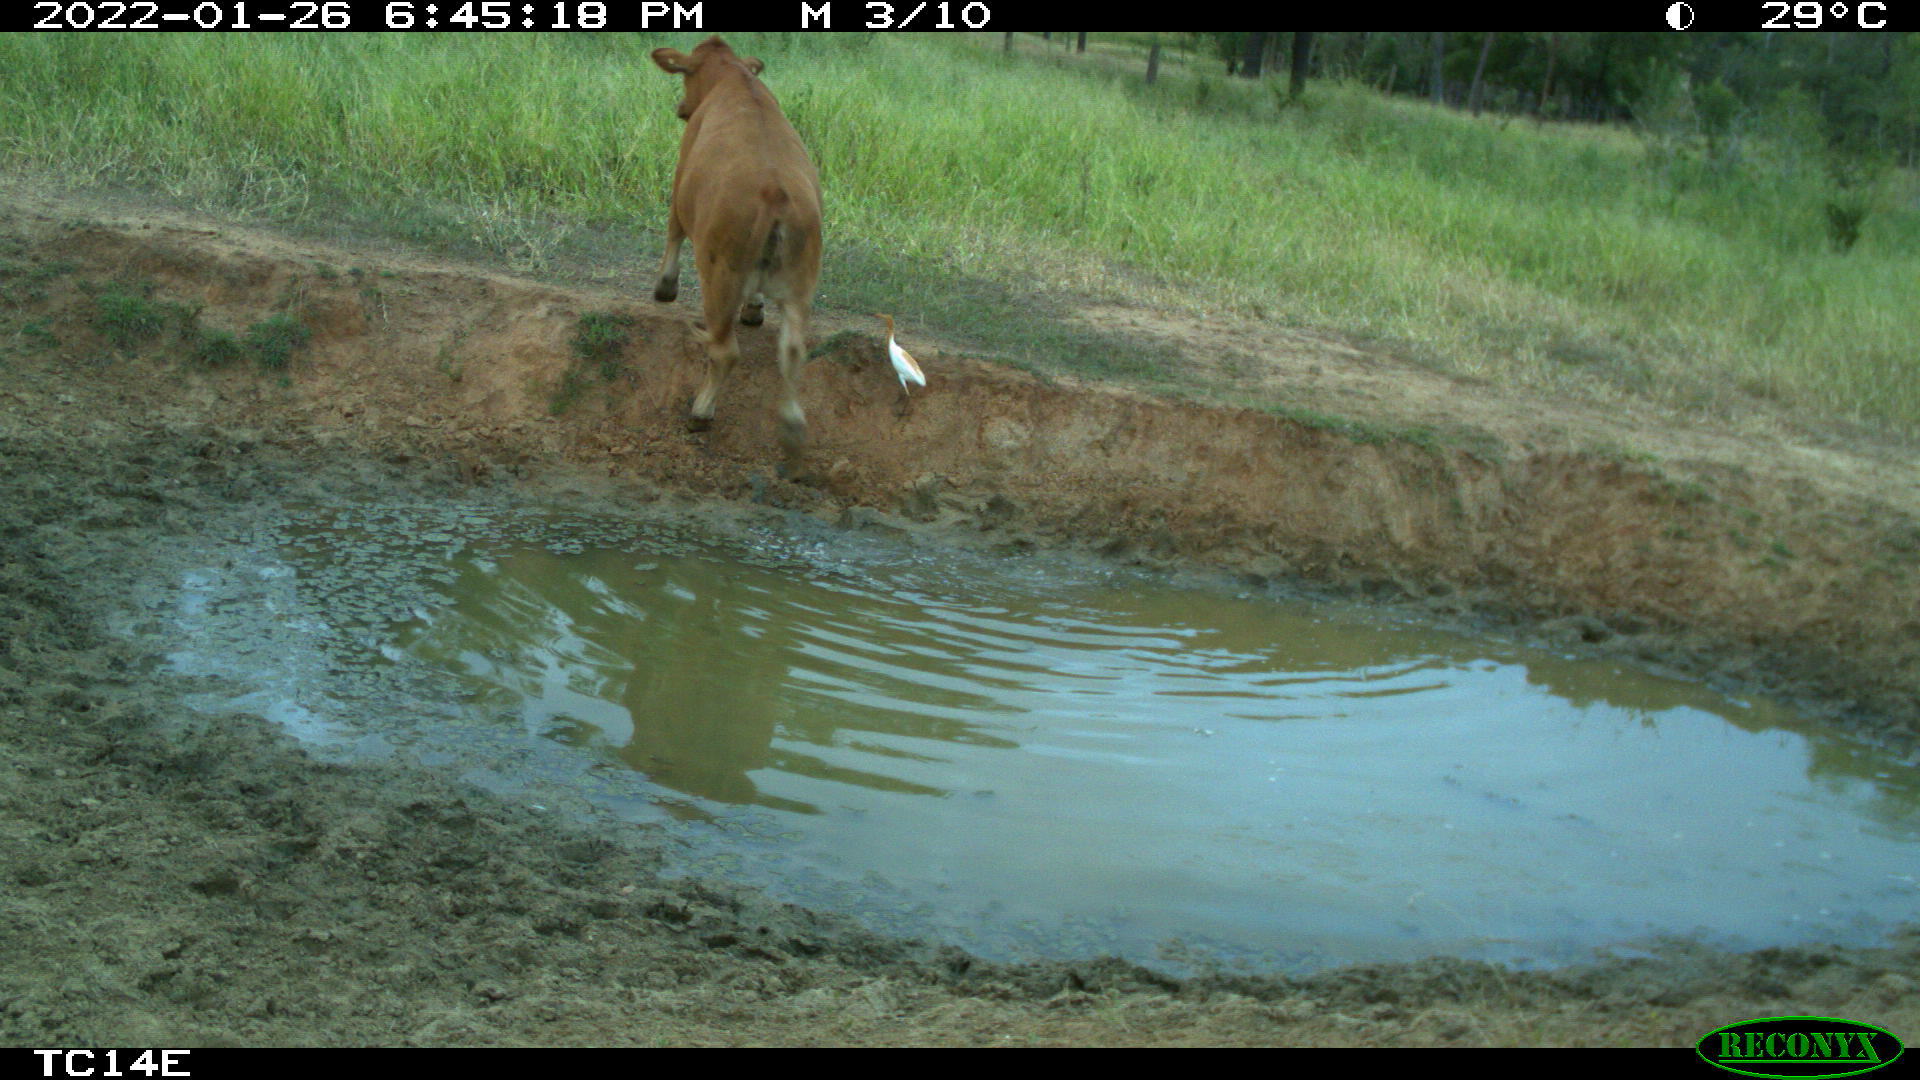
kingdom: Animalia
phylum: Chordata
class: Aves
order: Pelecaniformes
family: Ardeidae
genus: Bubulcus
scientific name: Bubulcus coromandus
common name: Eastern cattle egret
